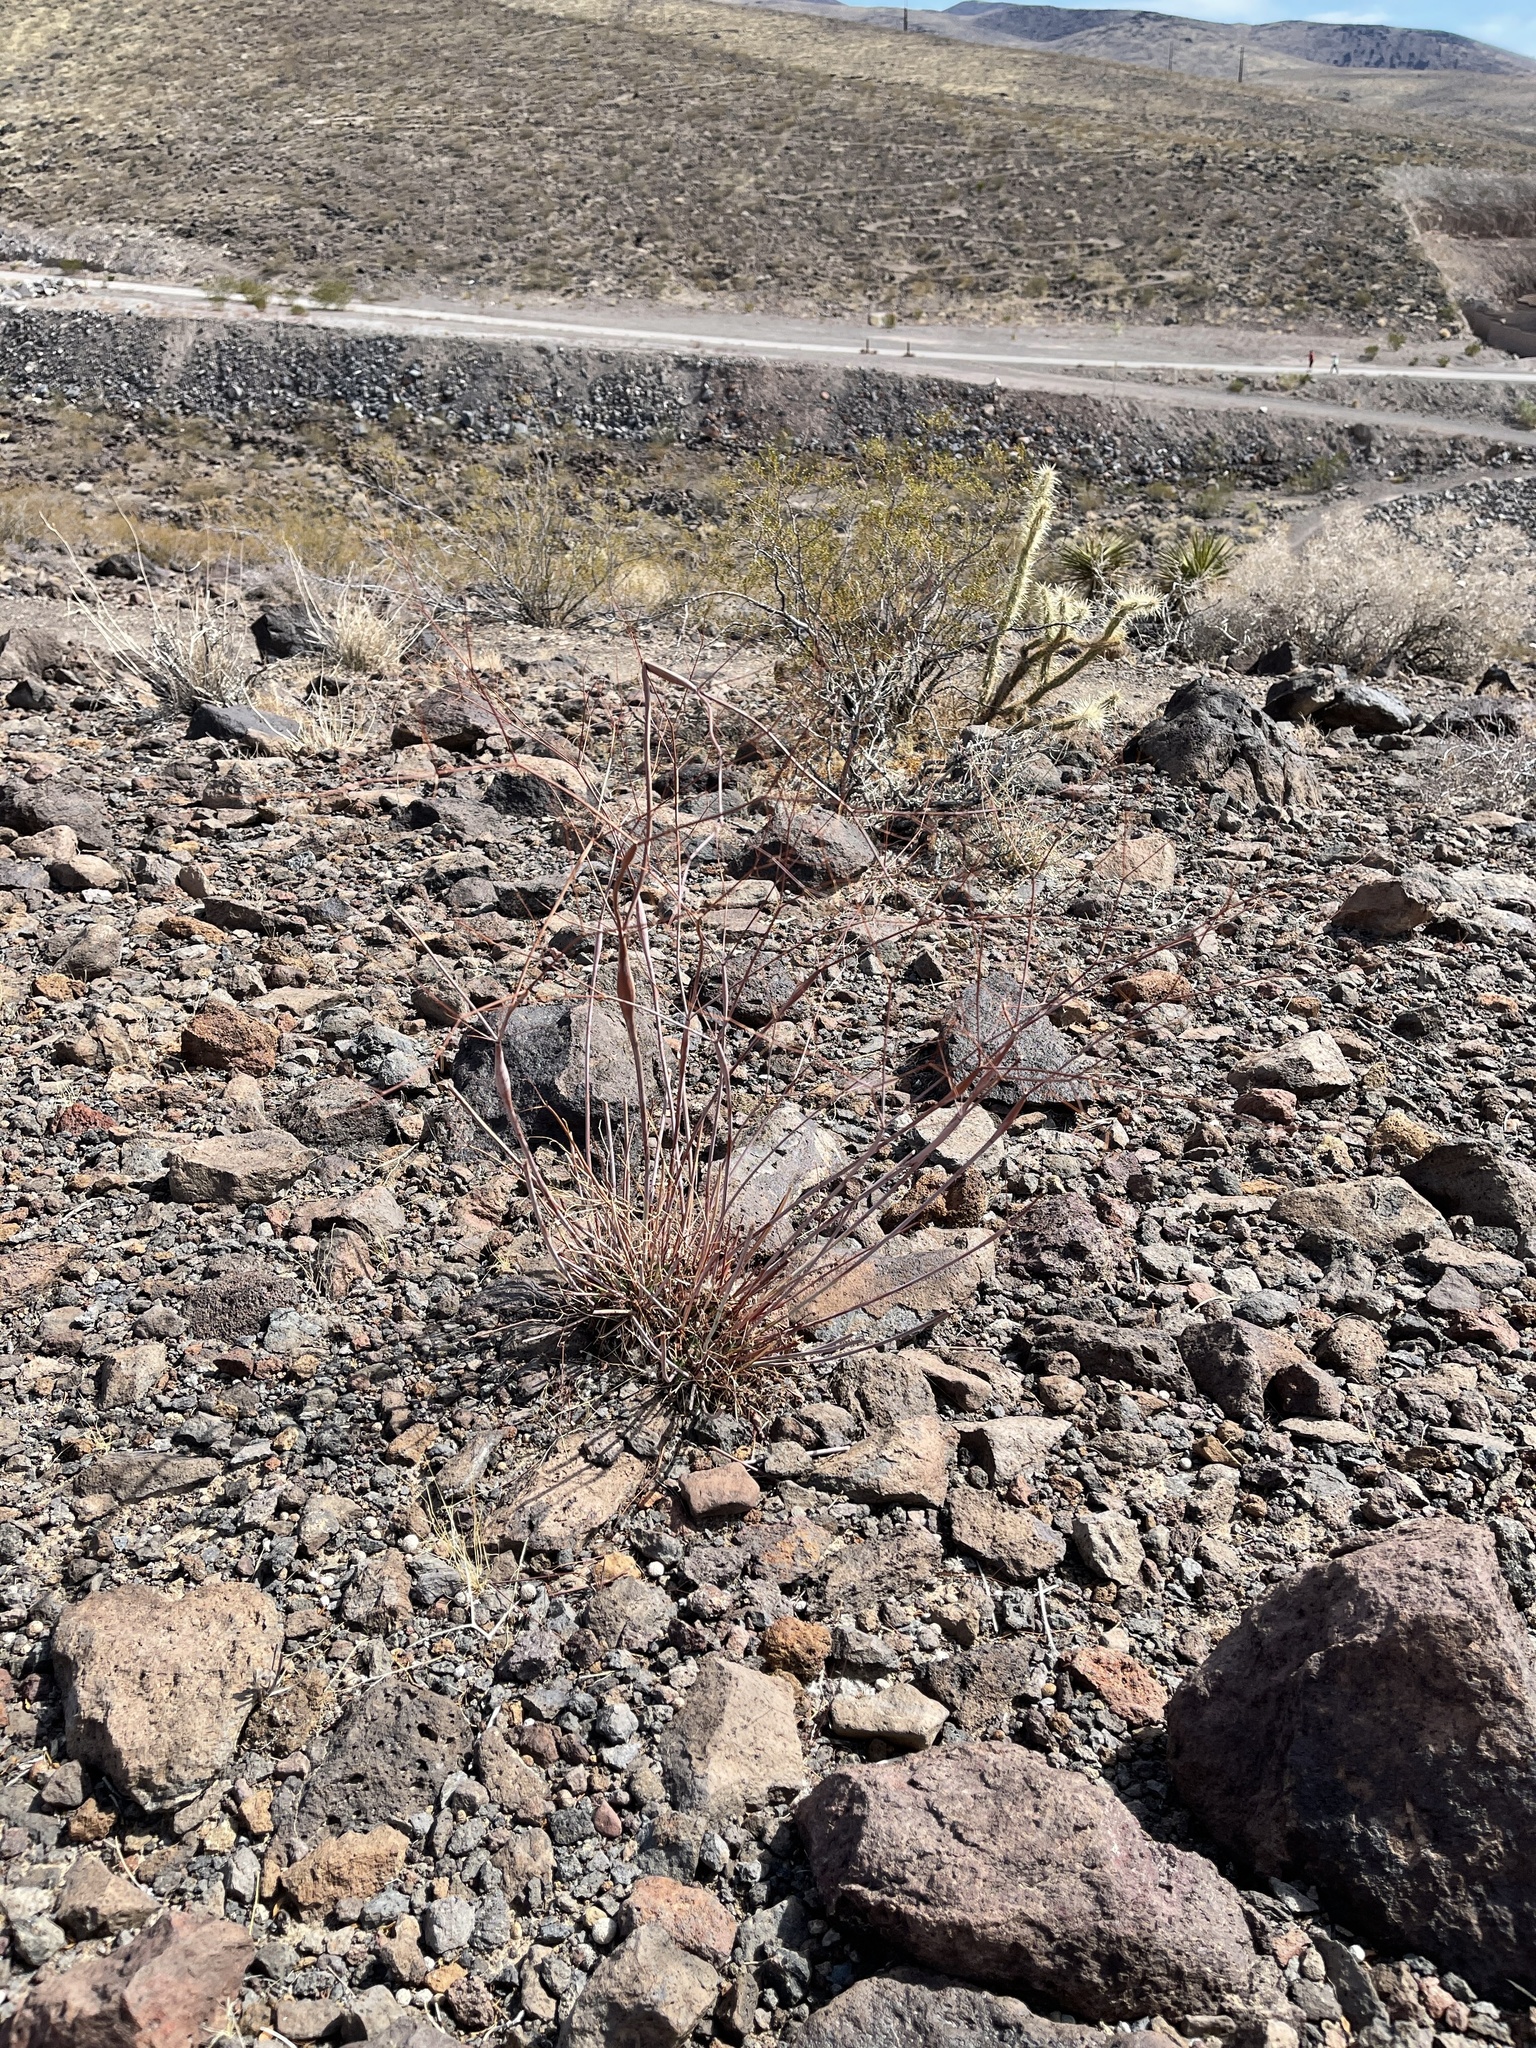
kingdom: Plantae
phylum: Tracheophyta
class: Magnoliopsida
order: Caryophyllales
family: Polygonaceae
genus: Eriogonum
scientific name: Eriogonum inflatum
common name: Desert trumpet
